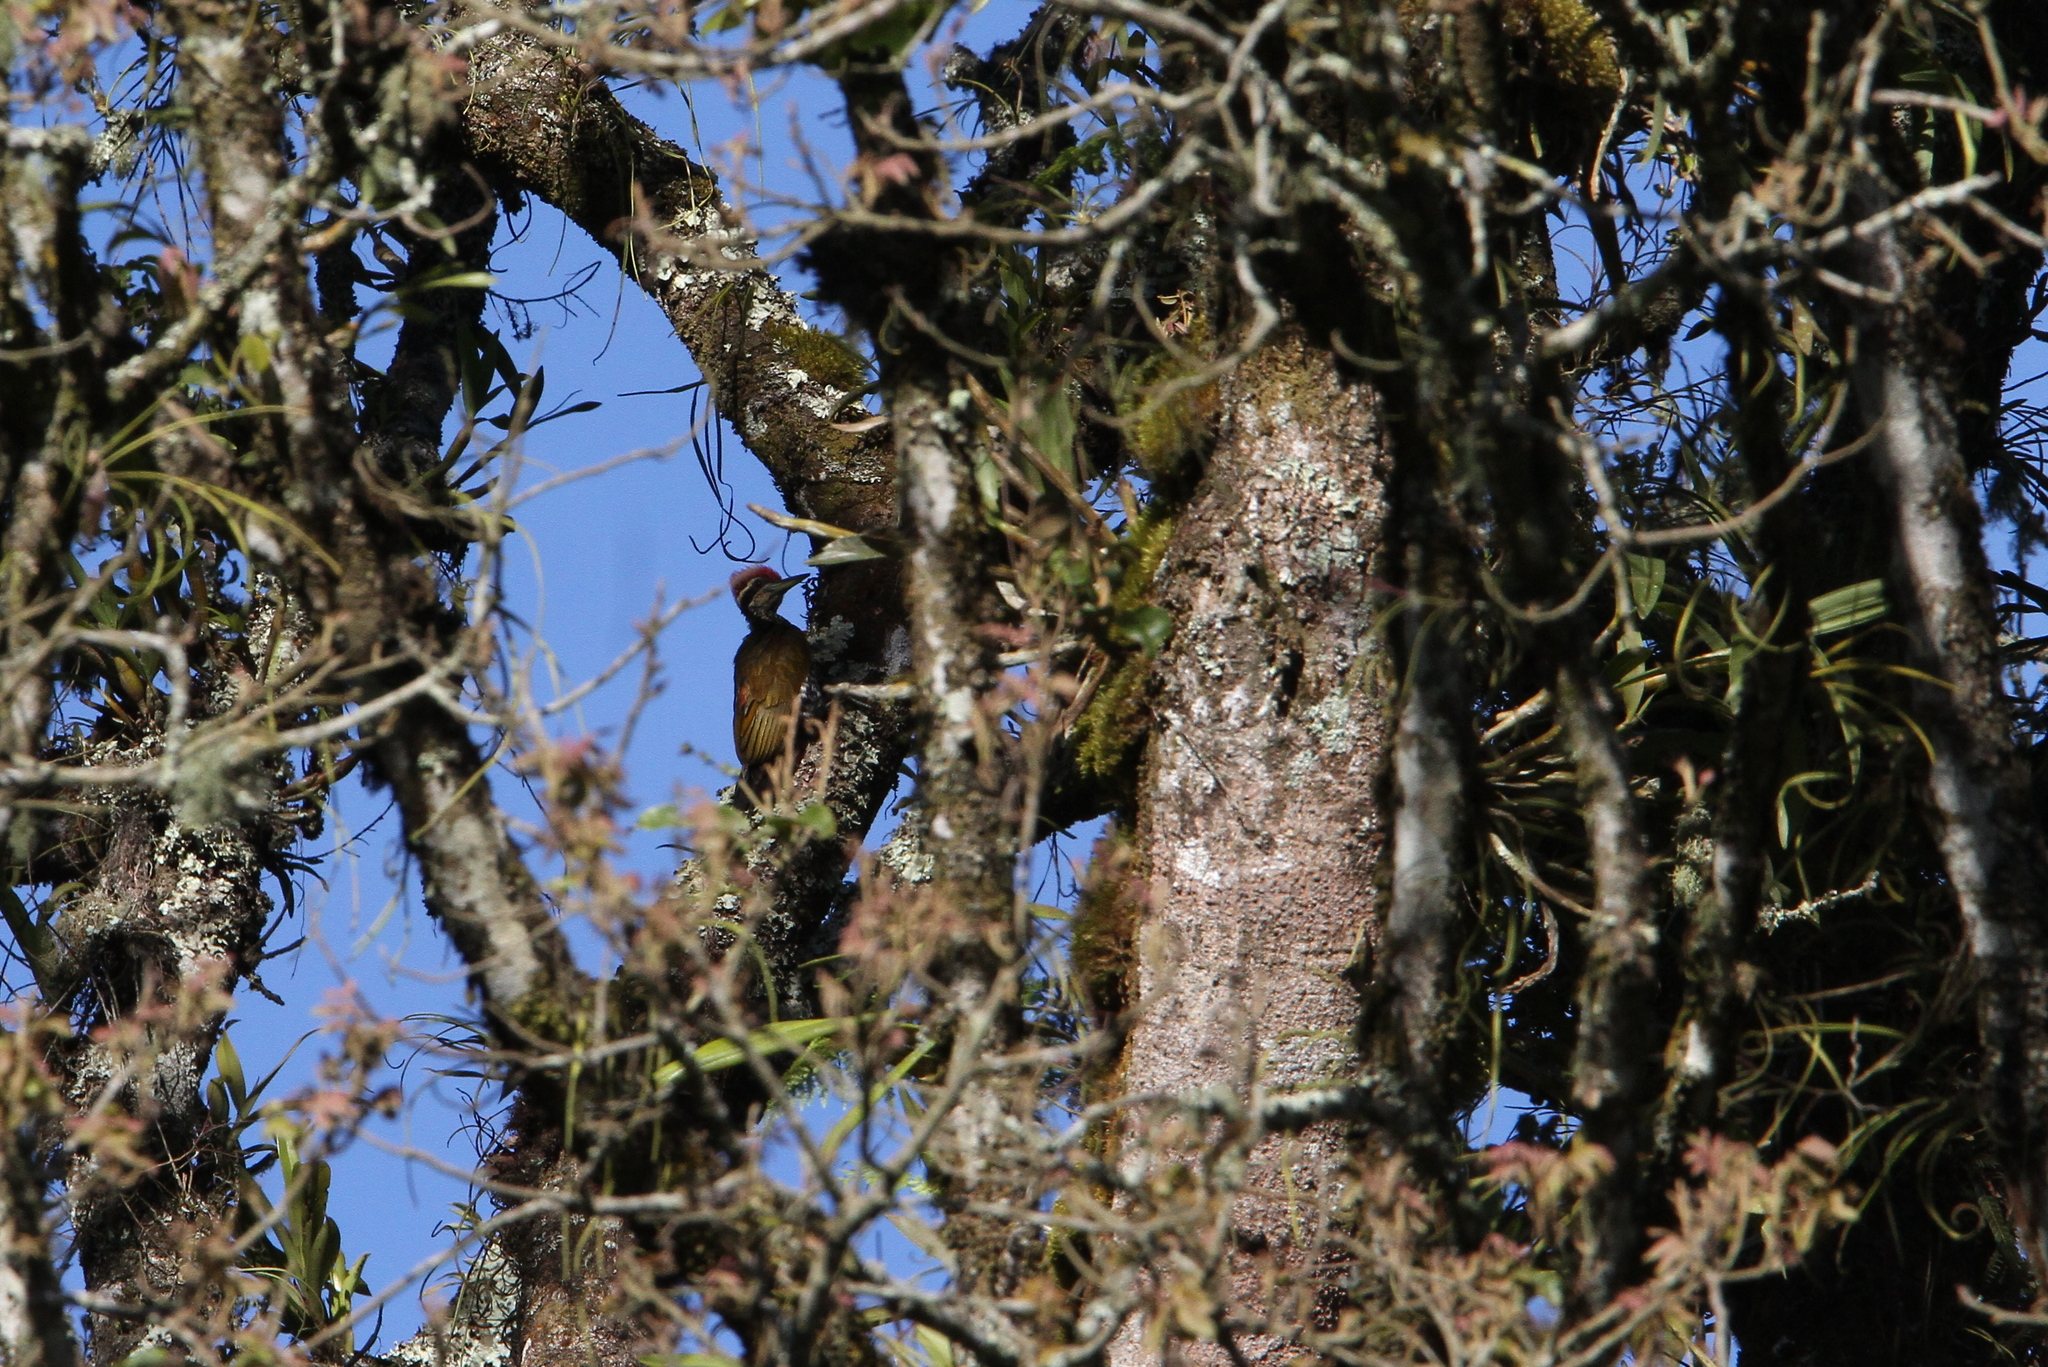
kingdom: Animalia
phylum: Chordata
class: Aves
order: Piciformes
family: Picidae
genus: Chrysocolaptes
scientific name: Chrysocolaptes strictus
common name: Javan flameback
